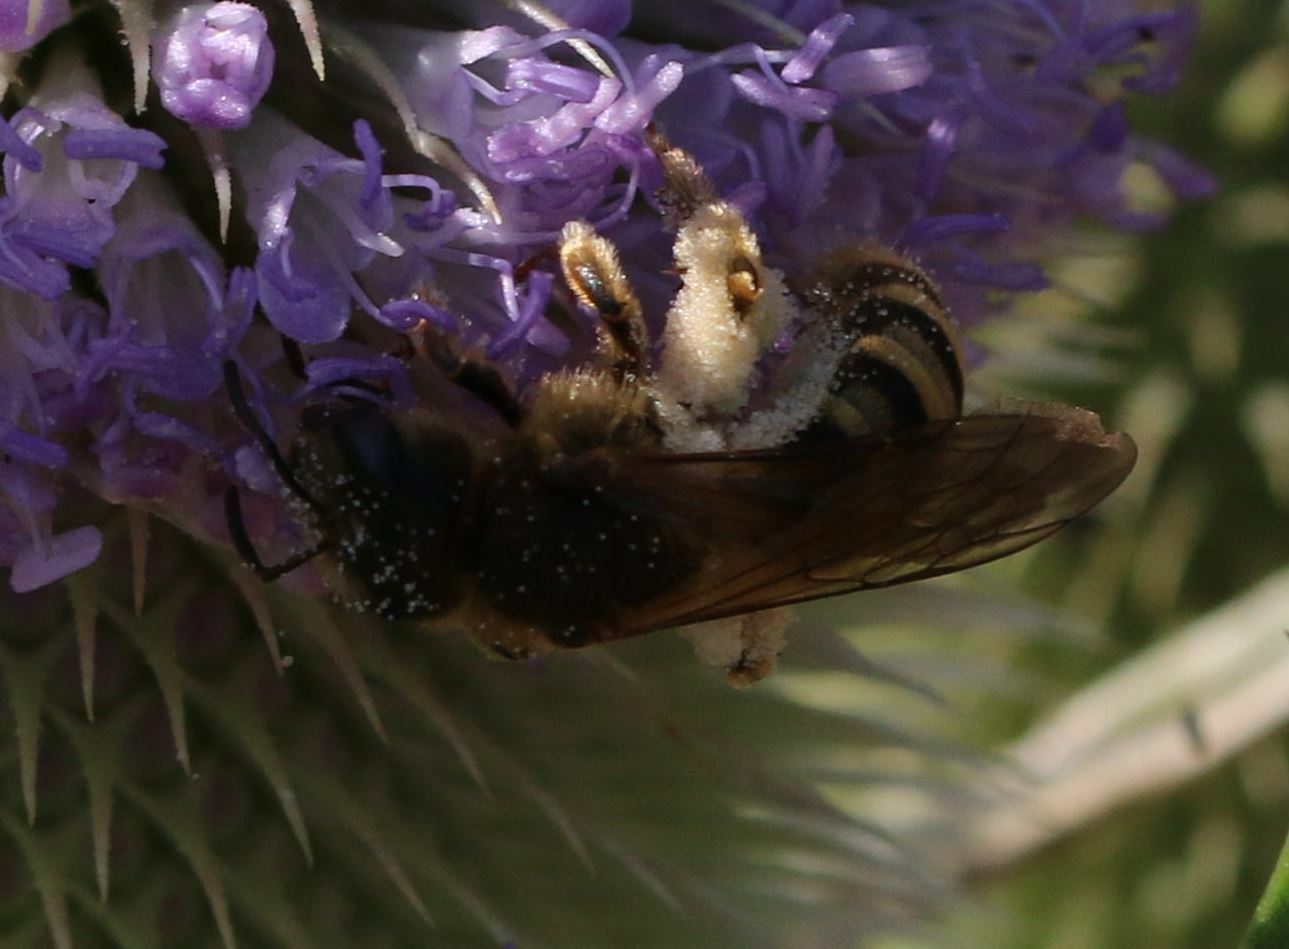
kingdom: Animalia
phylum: Arthropoda
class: Insecta
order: Hymenoptera
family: Halictidae
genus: Halictus
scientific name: Halictus scabiosae
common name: Great banded furrow bee
